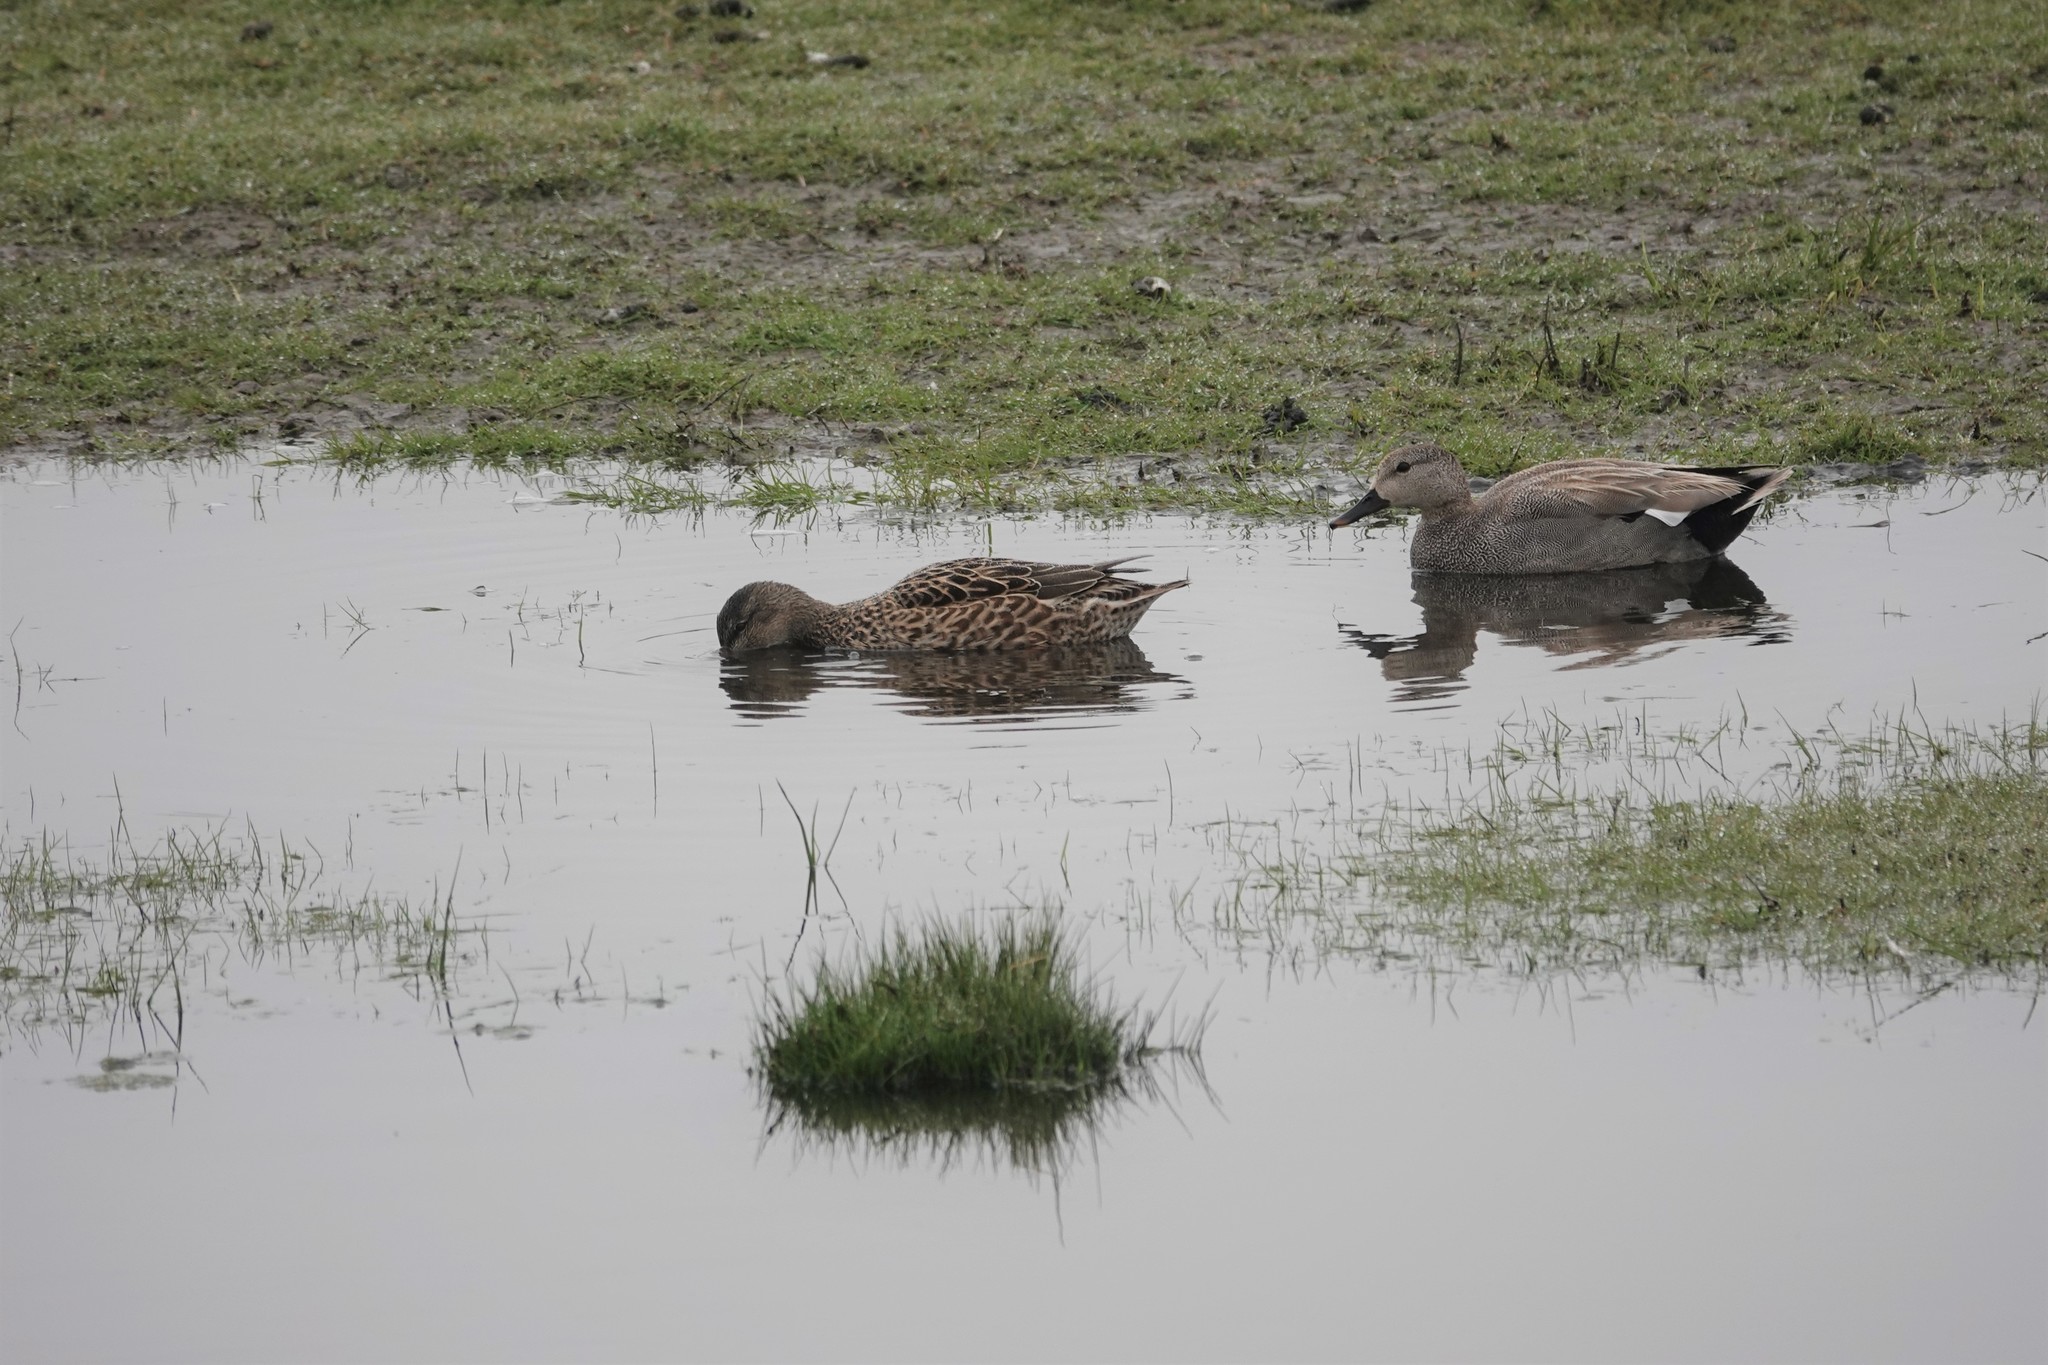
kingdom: Animalia
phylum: Chordata
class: Aves
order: Anseriformes
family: Anatidae
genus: Mareca
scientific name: Mareca strepera
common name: Gadwall
